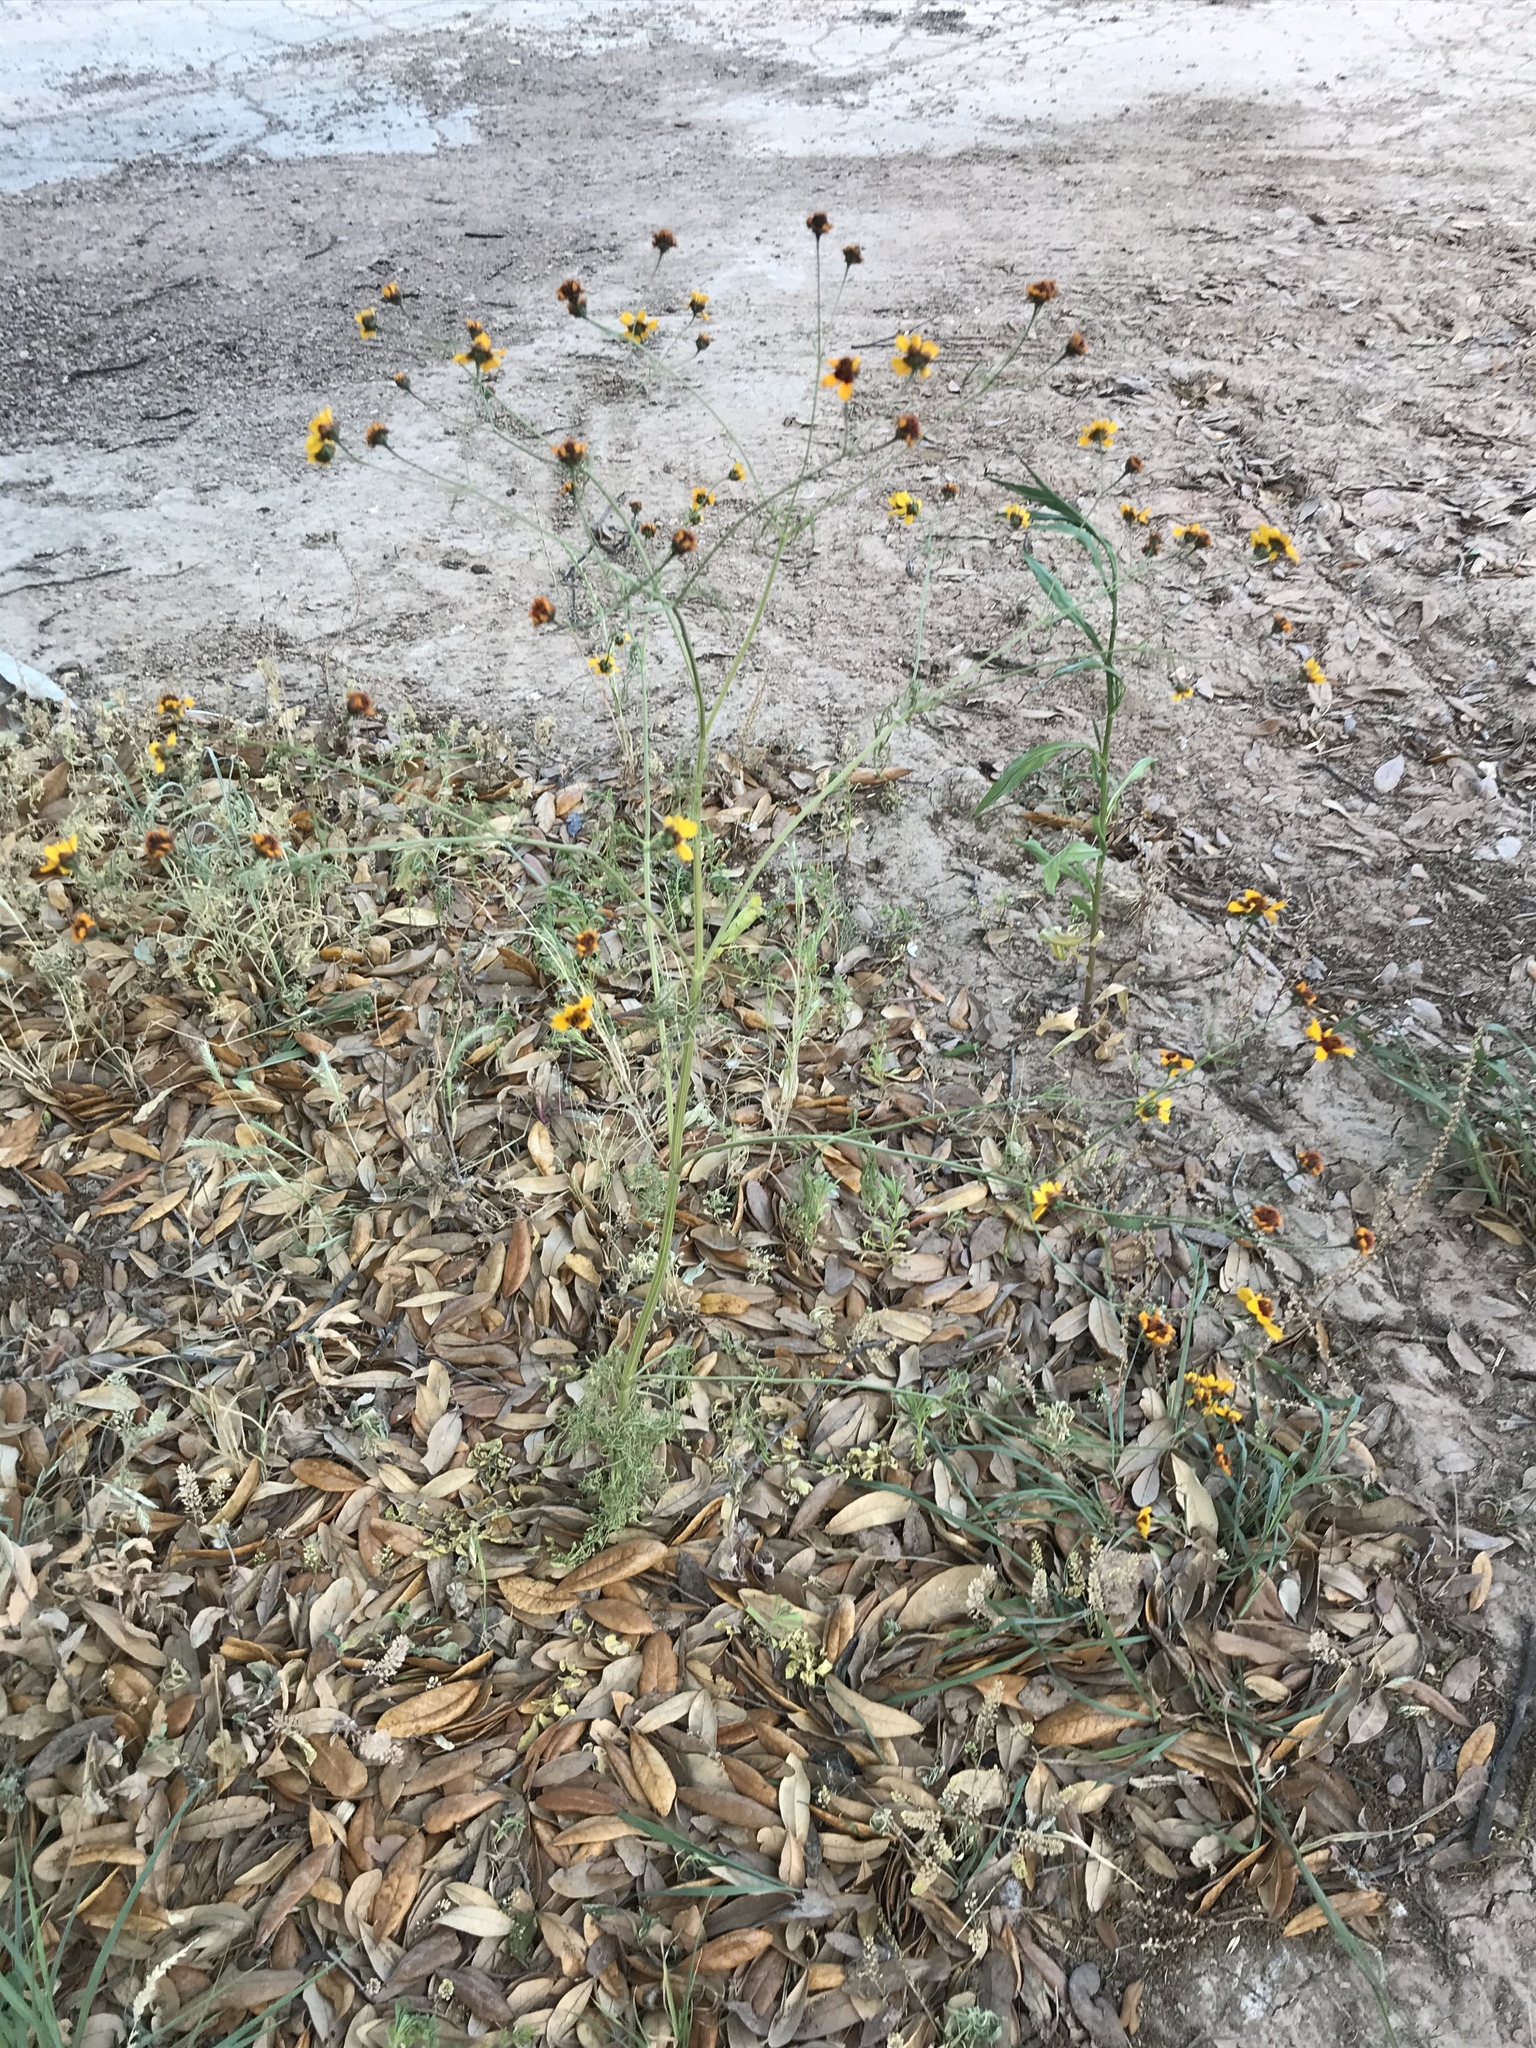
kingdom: Plantae
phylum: Tracheophyta
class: Magnoliopsida
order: Asterales
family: Asteraceae
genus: Coreopsis
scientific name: Coreopsis tinctoria
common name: Garden tickseed
